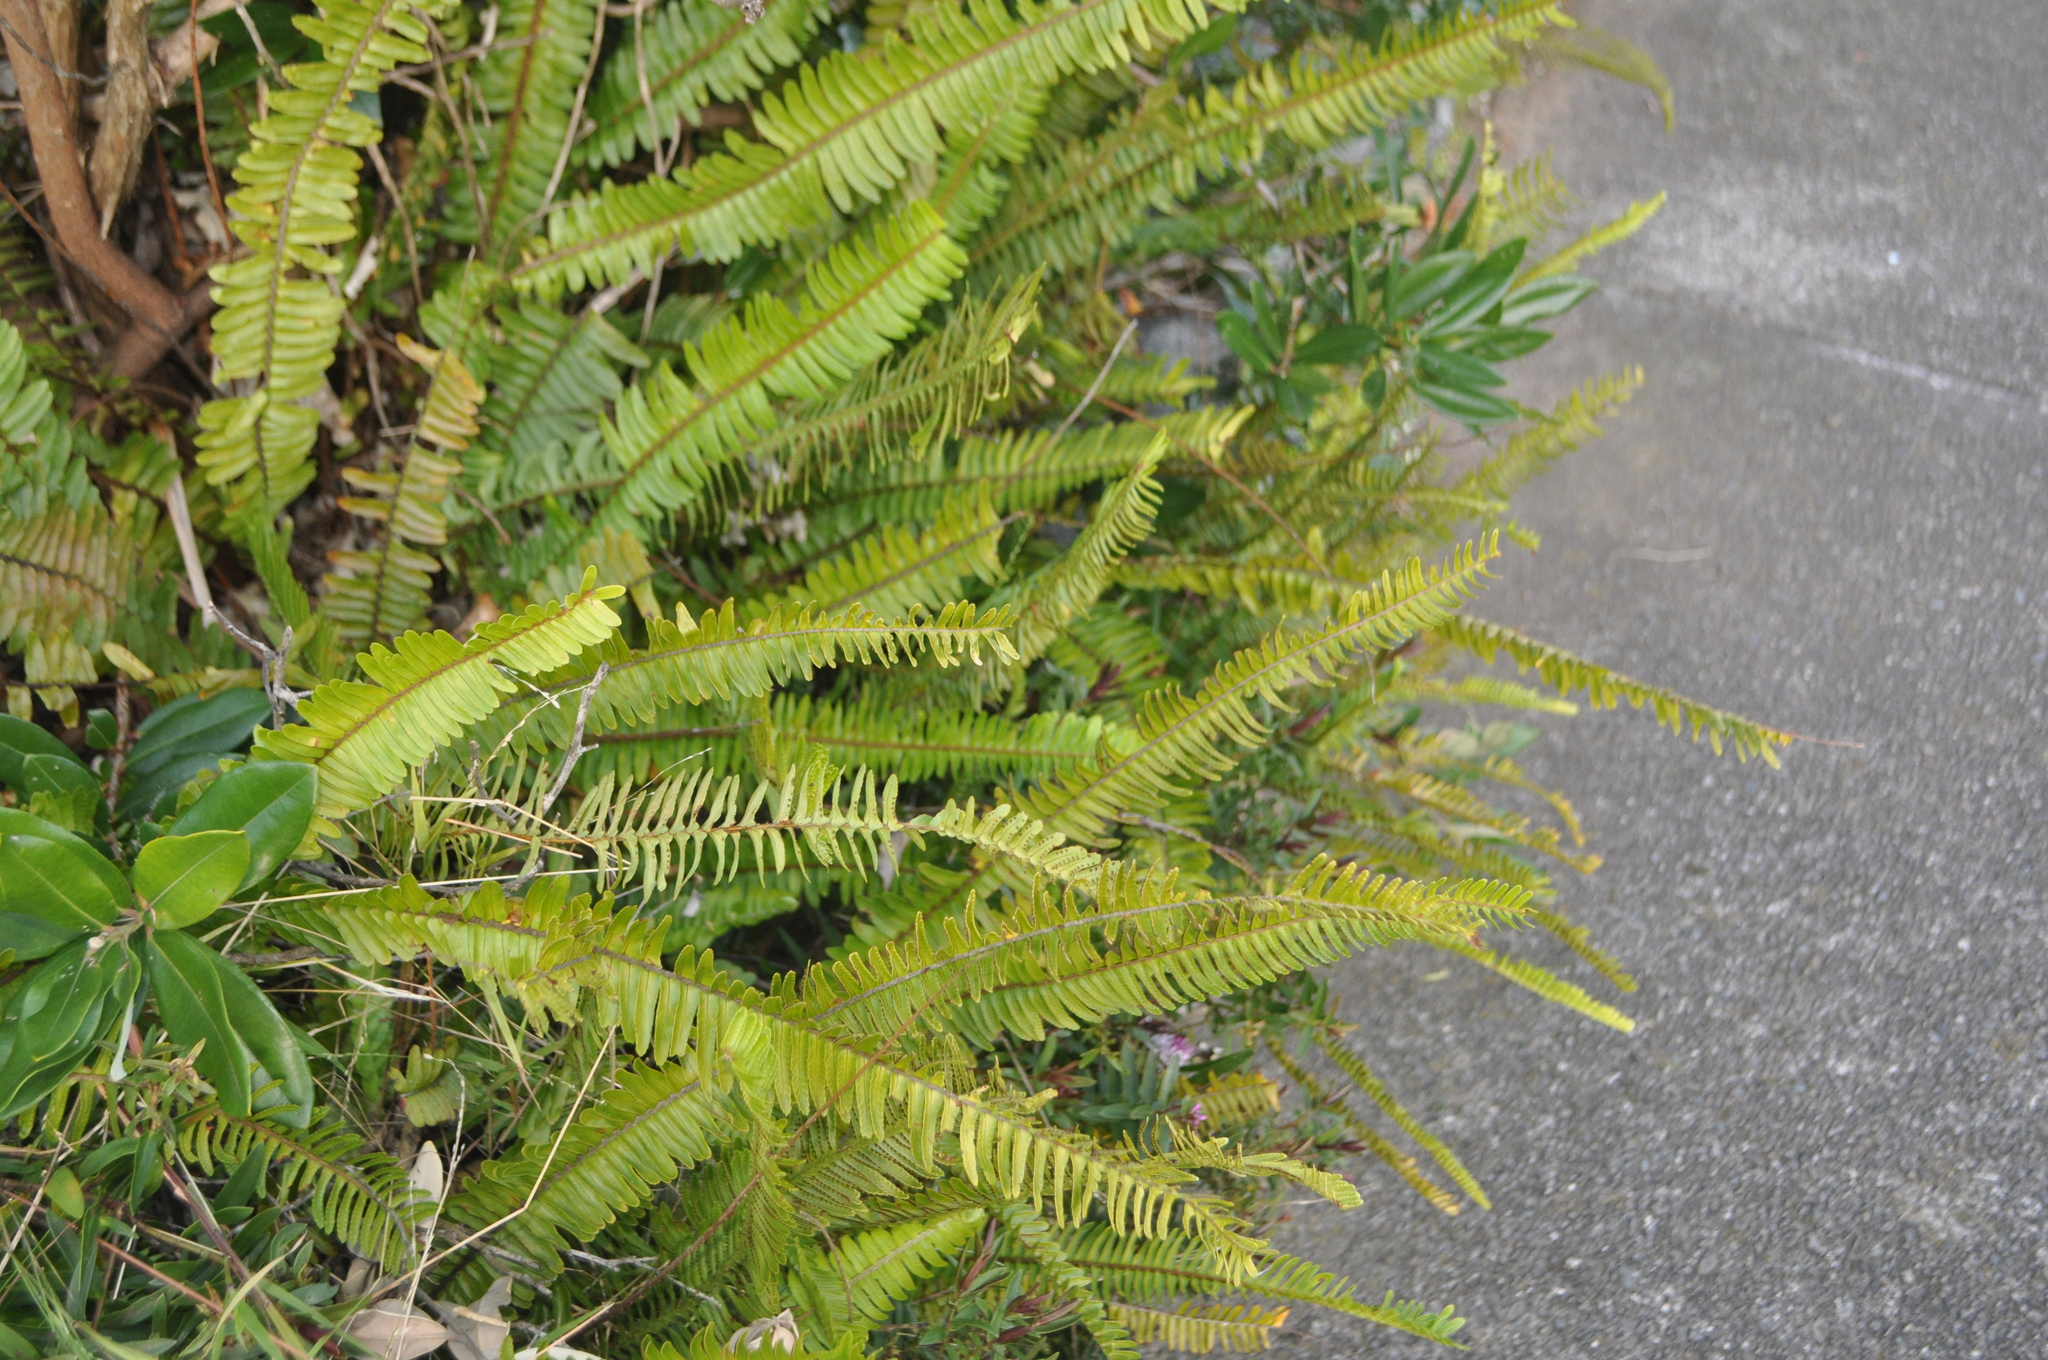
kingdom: Plantae
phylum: Tracheophyta
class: Polypodiopsida
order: Polypodiales
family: Nephrolepidaceae
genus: Nephrolepis
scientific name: Nephrolepis cordifolia
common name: Narrow swordfern
